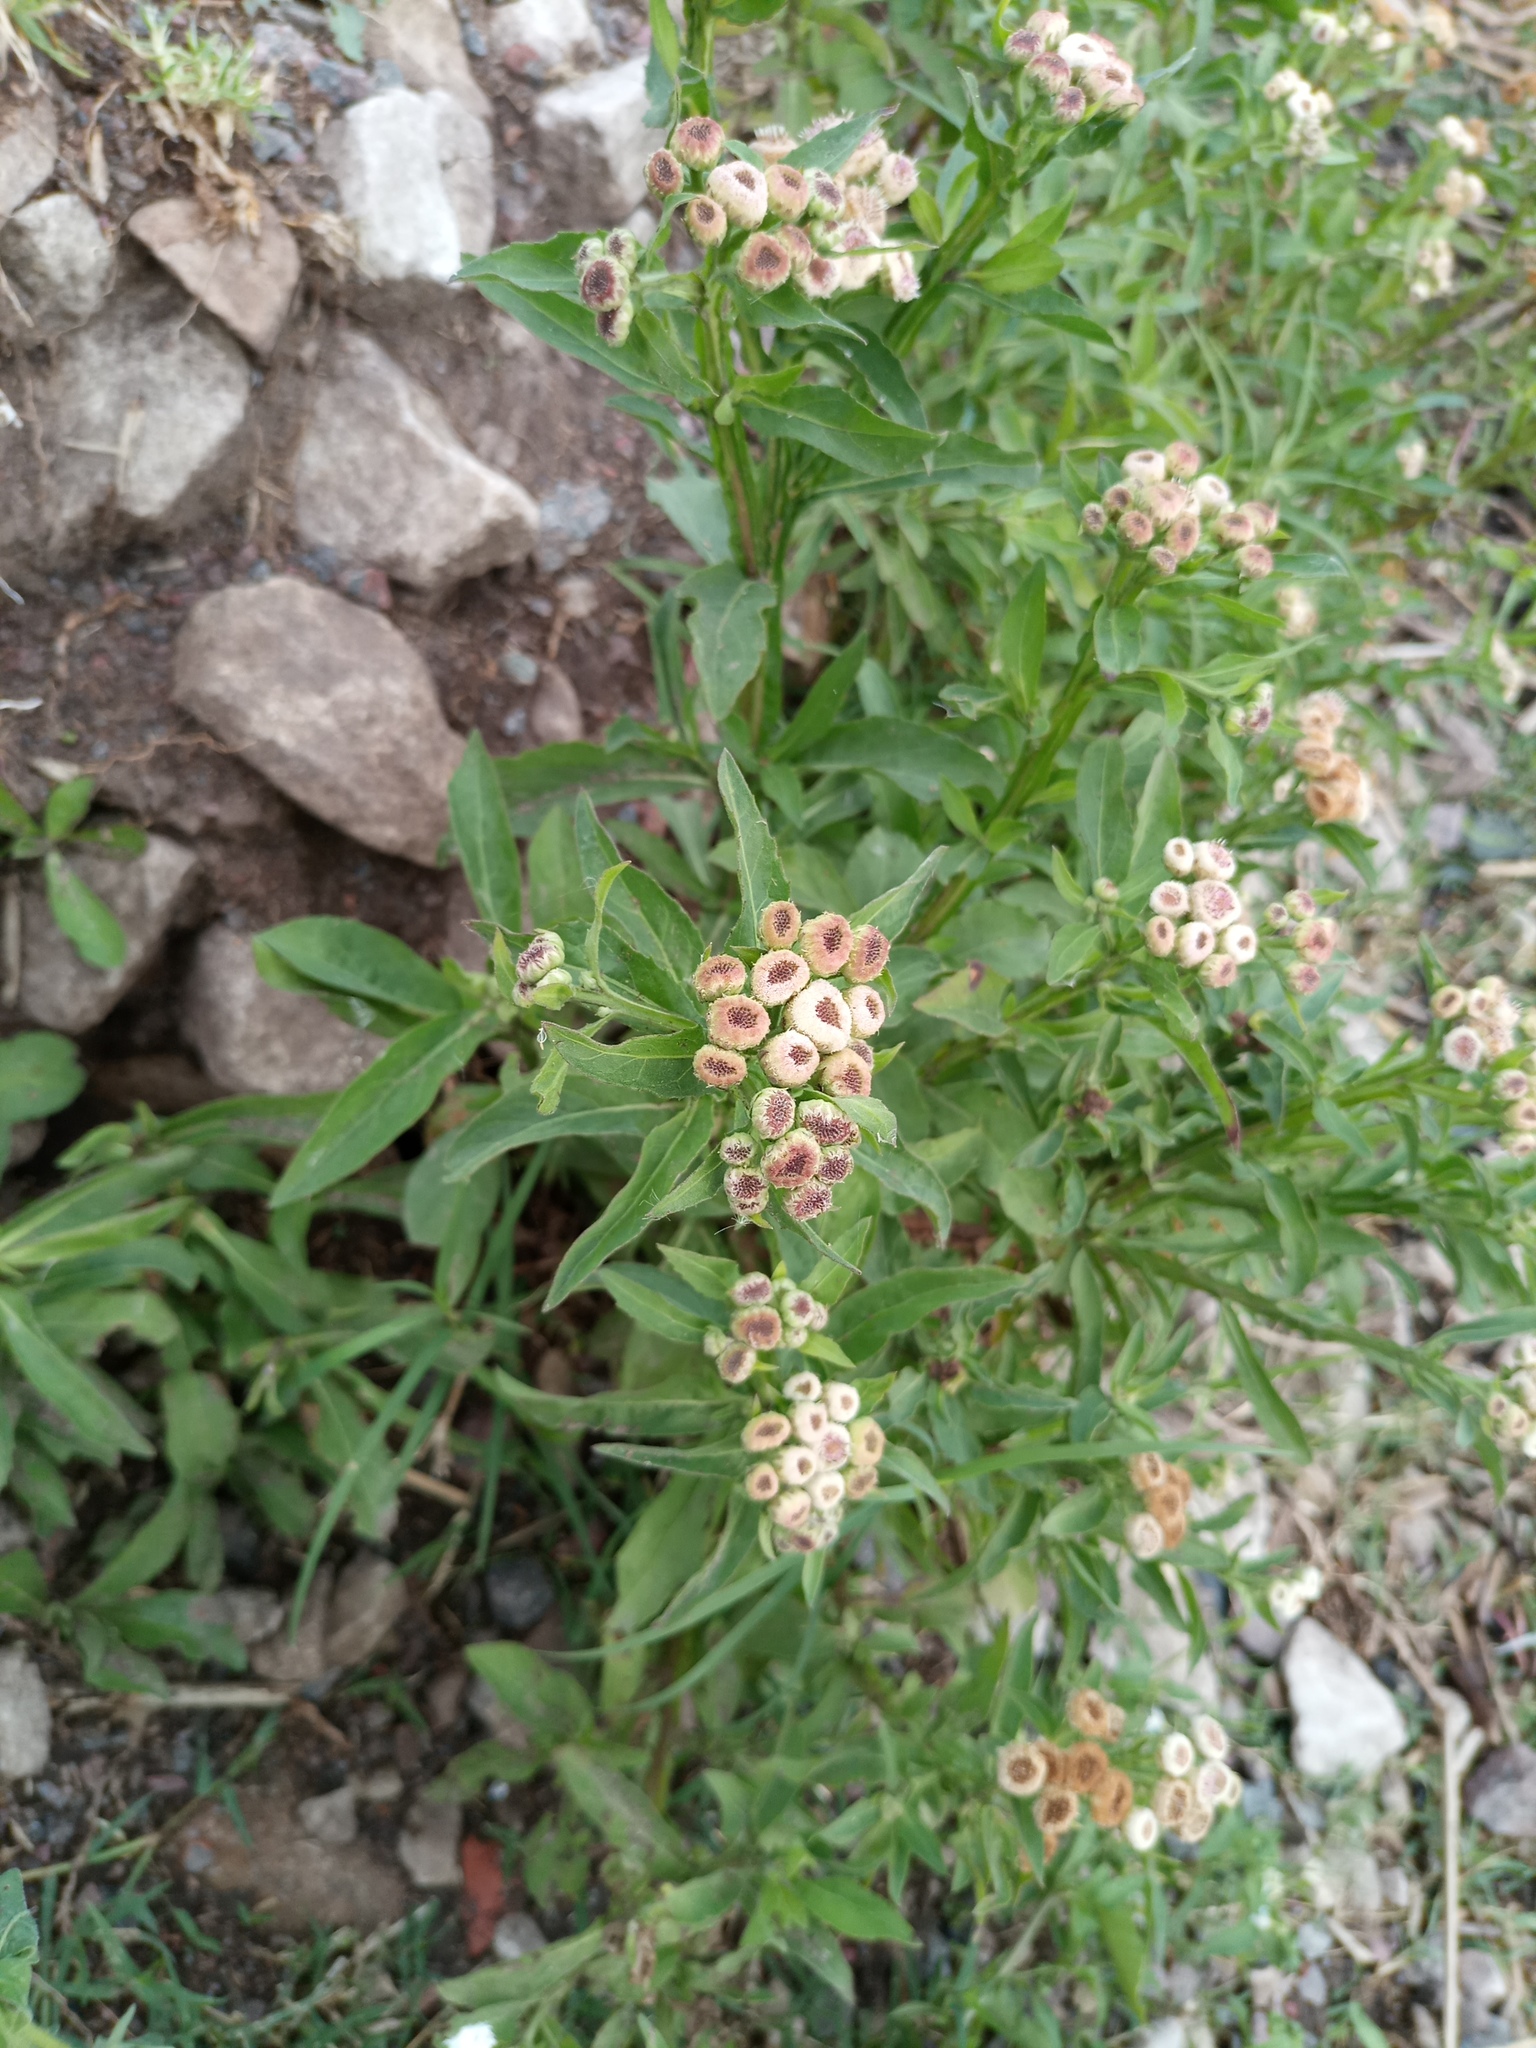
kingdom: Plantae
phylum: Tracheophyta
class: Magnoliopsida
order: Asterales
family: Asteraceae
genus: Pluchea
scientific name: Pluchea sagittalis
